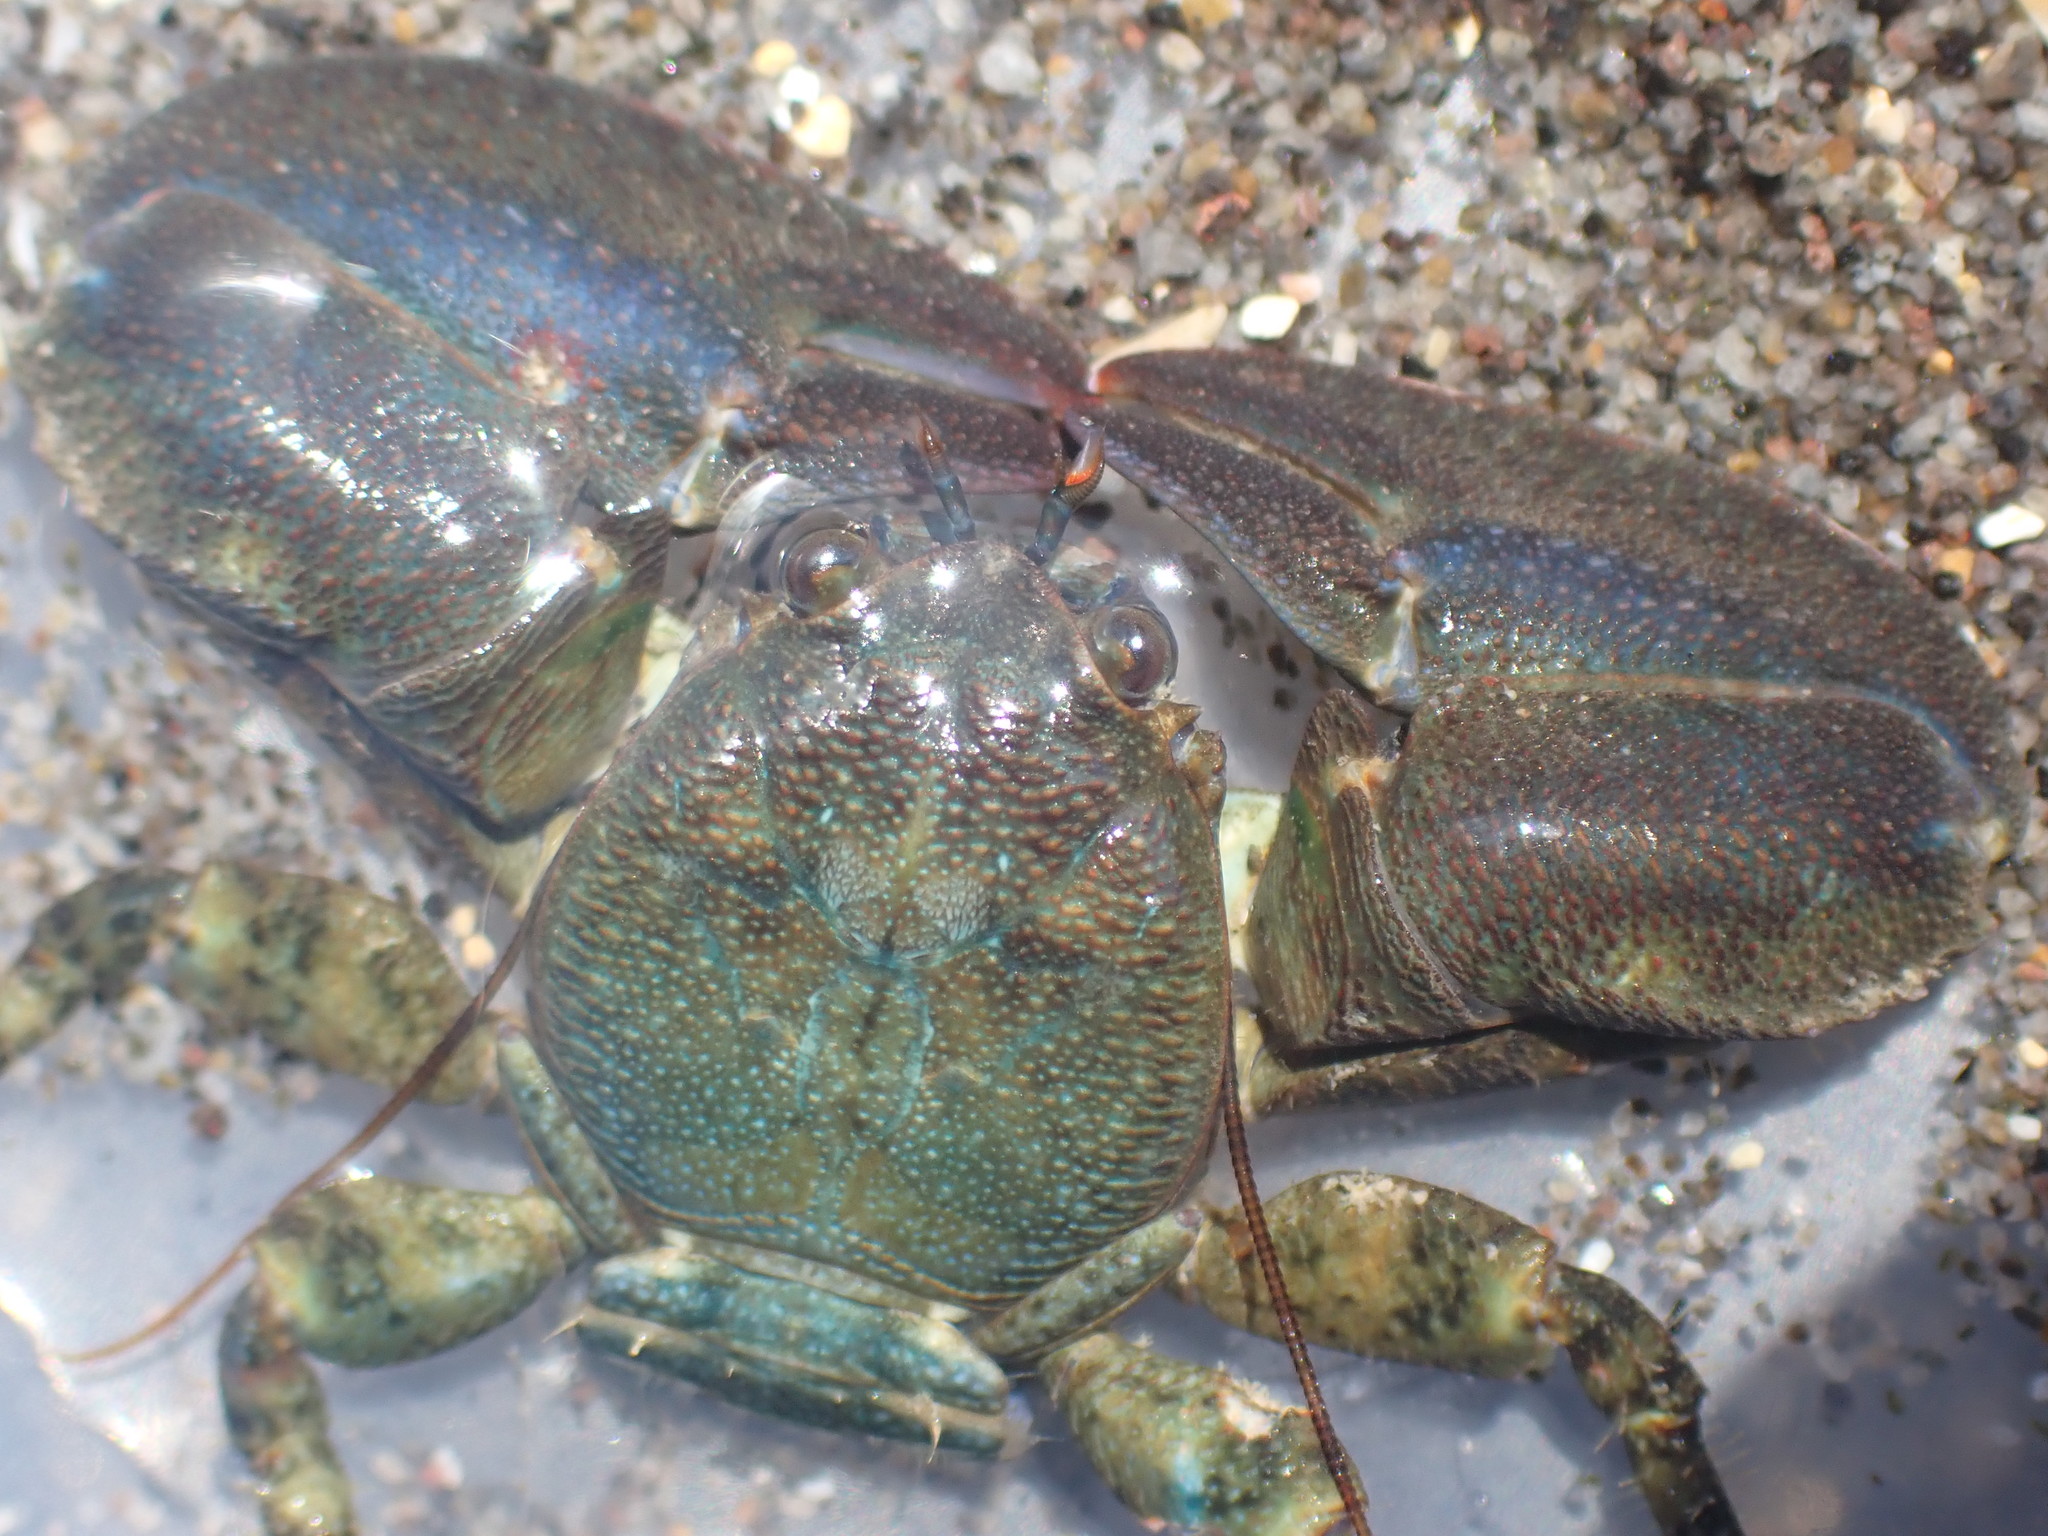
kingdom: Animalia
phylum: Arthropoda
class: Malacostraca
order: Decapoda
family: Porcellanidae
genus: Petrolisthes
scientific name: Petrolisthes elongatus
